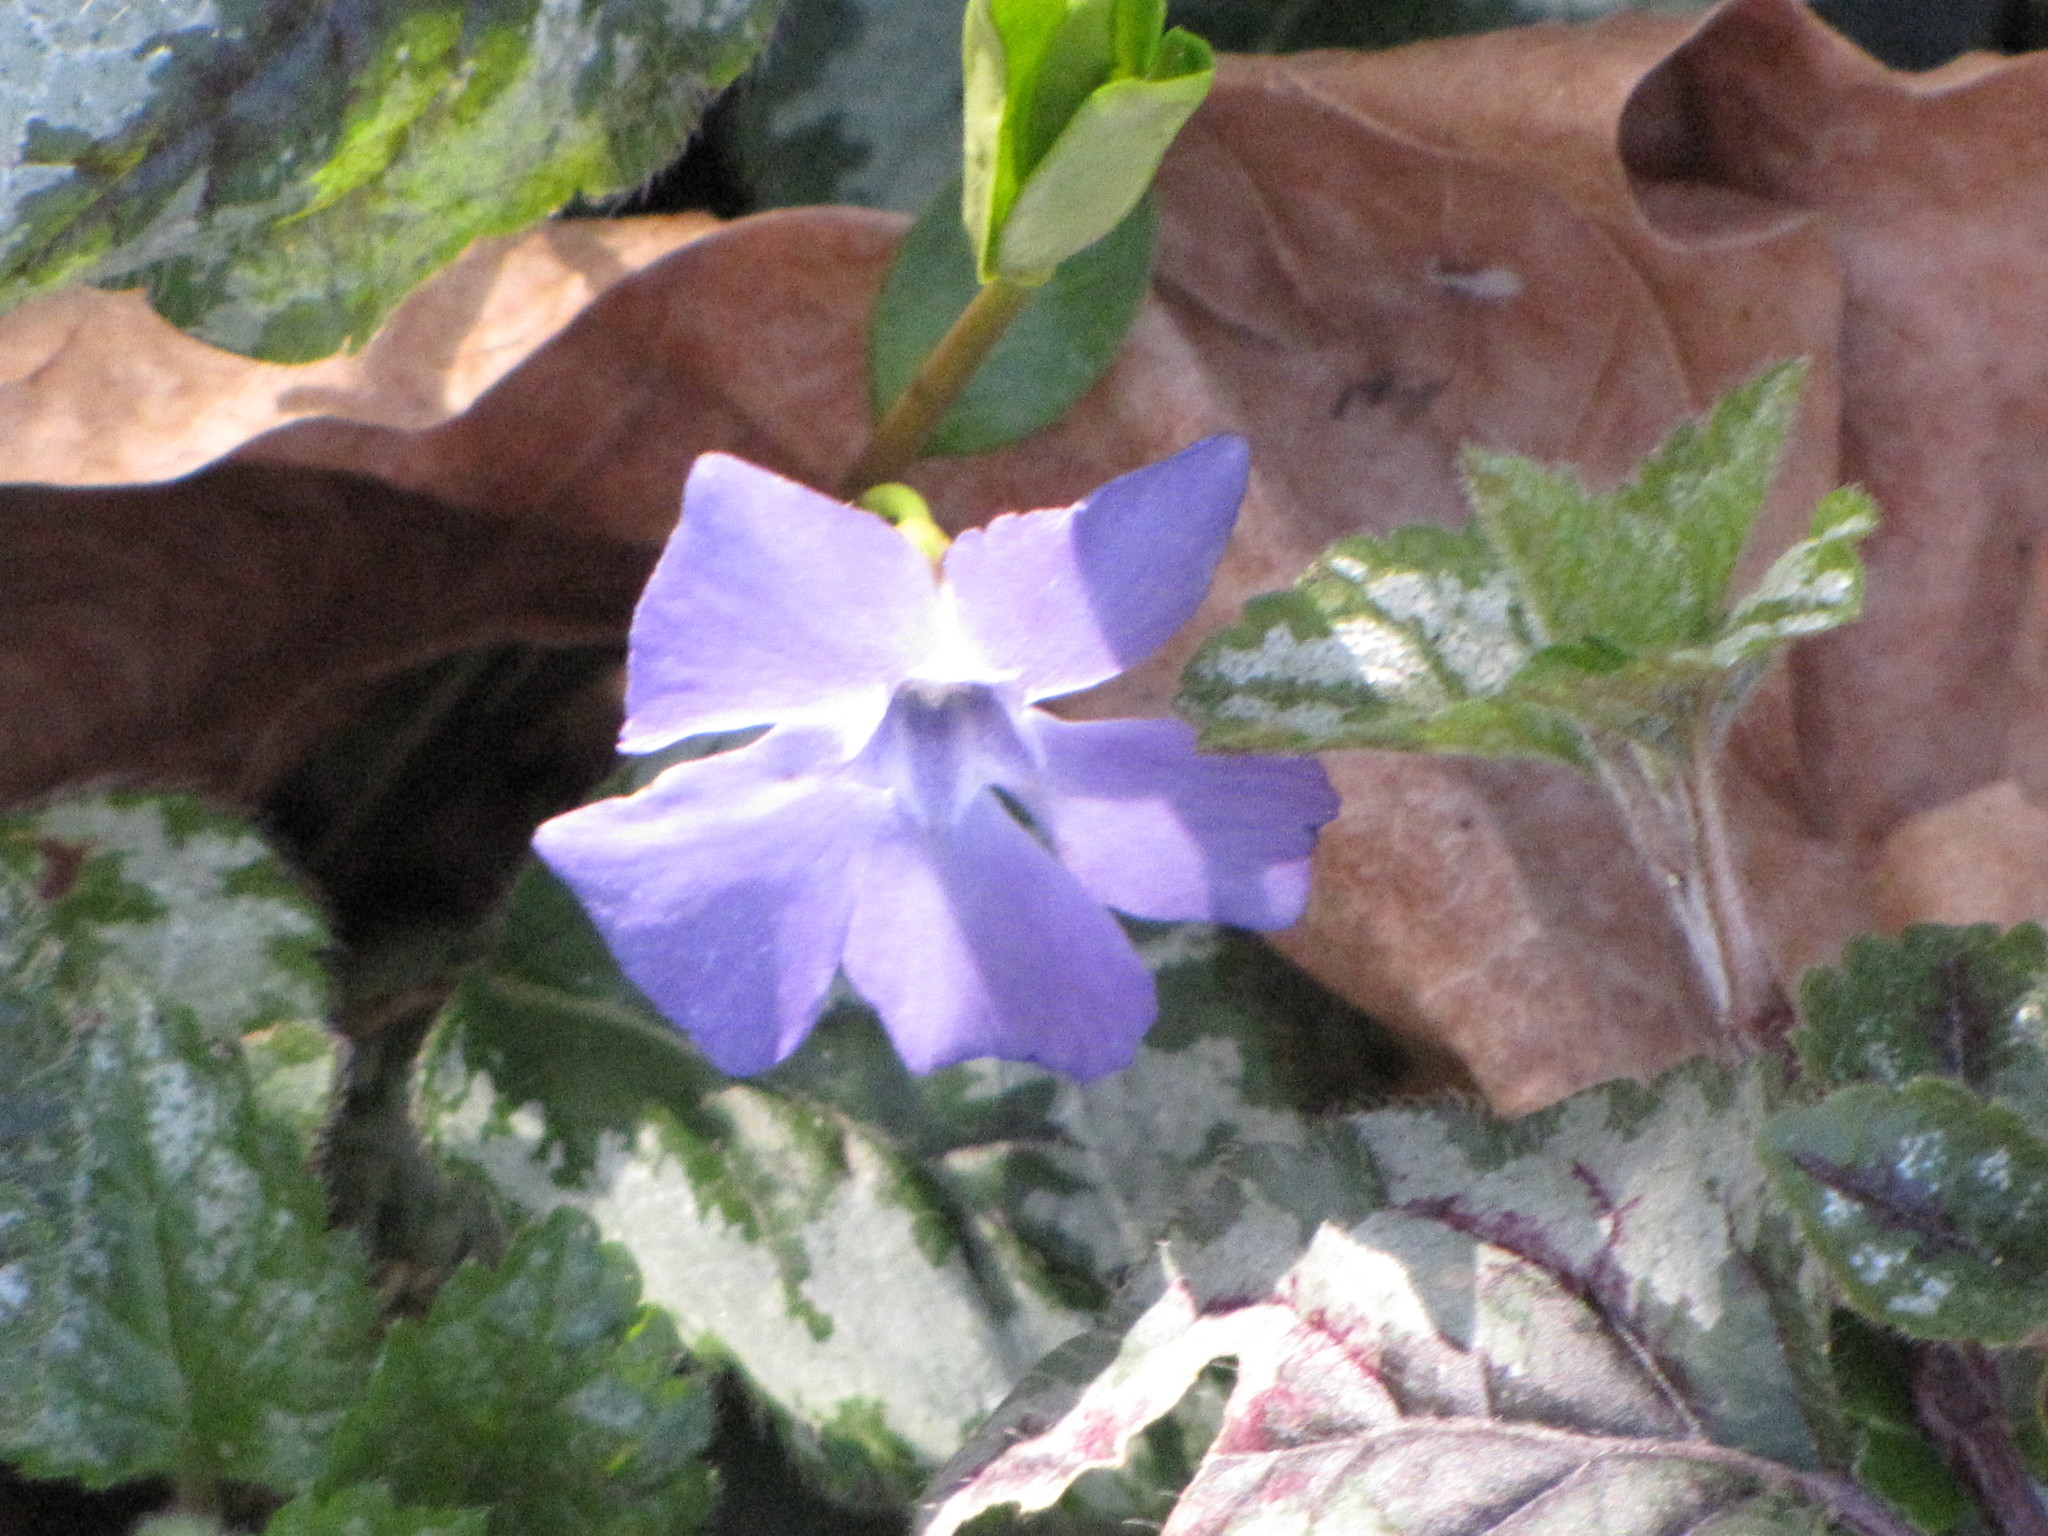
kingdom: Plantae
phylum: Tracheophyta
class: Magnoliopsida
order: Gentianales
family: Apocynaceae
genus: Vinca
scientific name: Vinca minor
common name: Lesser periwinkle
